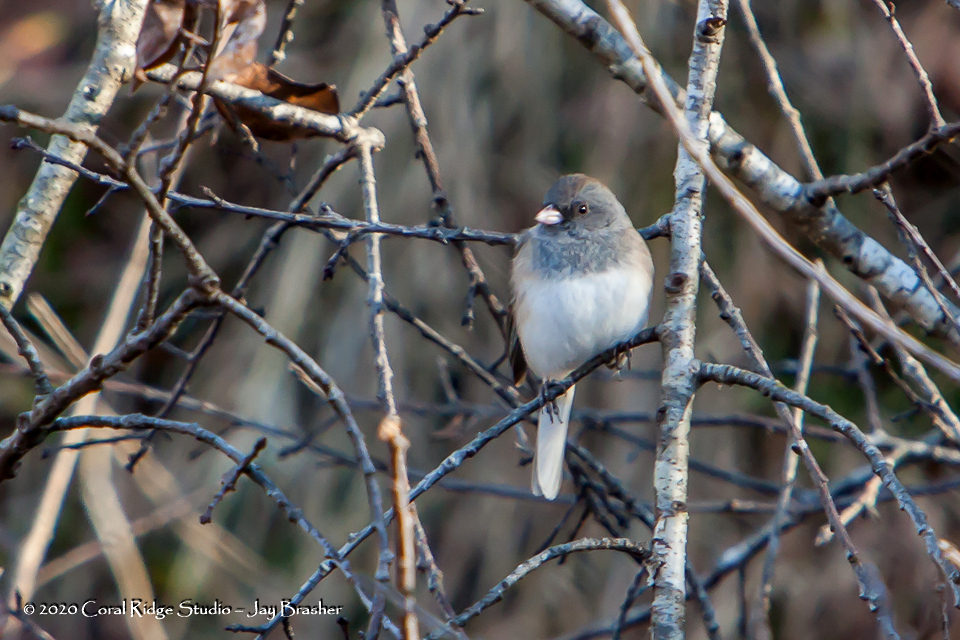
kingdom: Animalia
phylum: Chordata
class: Aves
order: Passeriformes
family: Passerellidae
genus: Junco
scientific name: Junco hyemalis
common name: Dark-eyed junco
